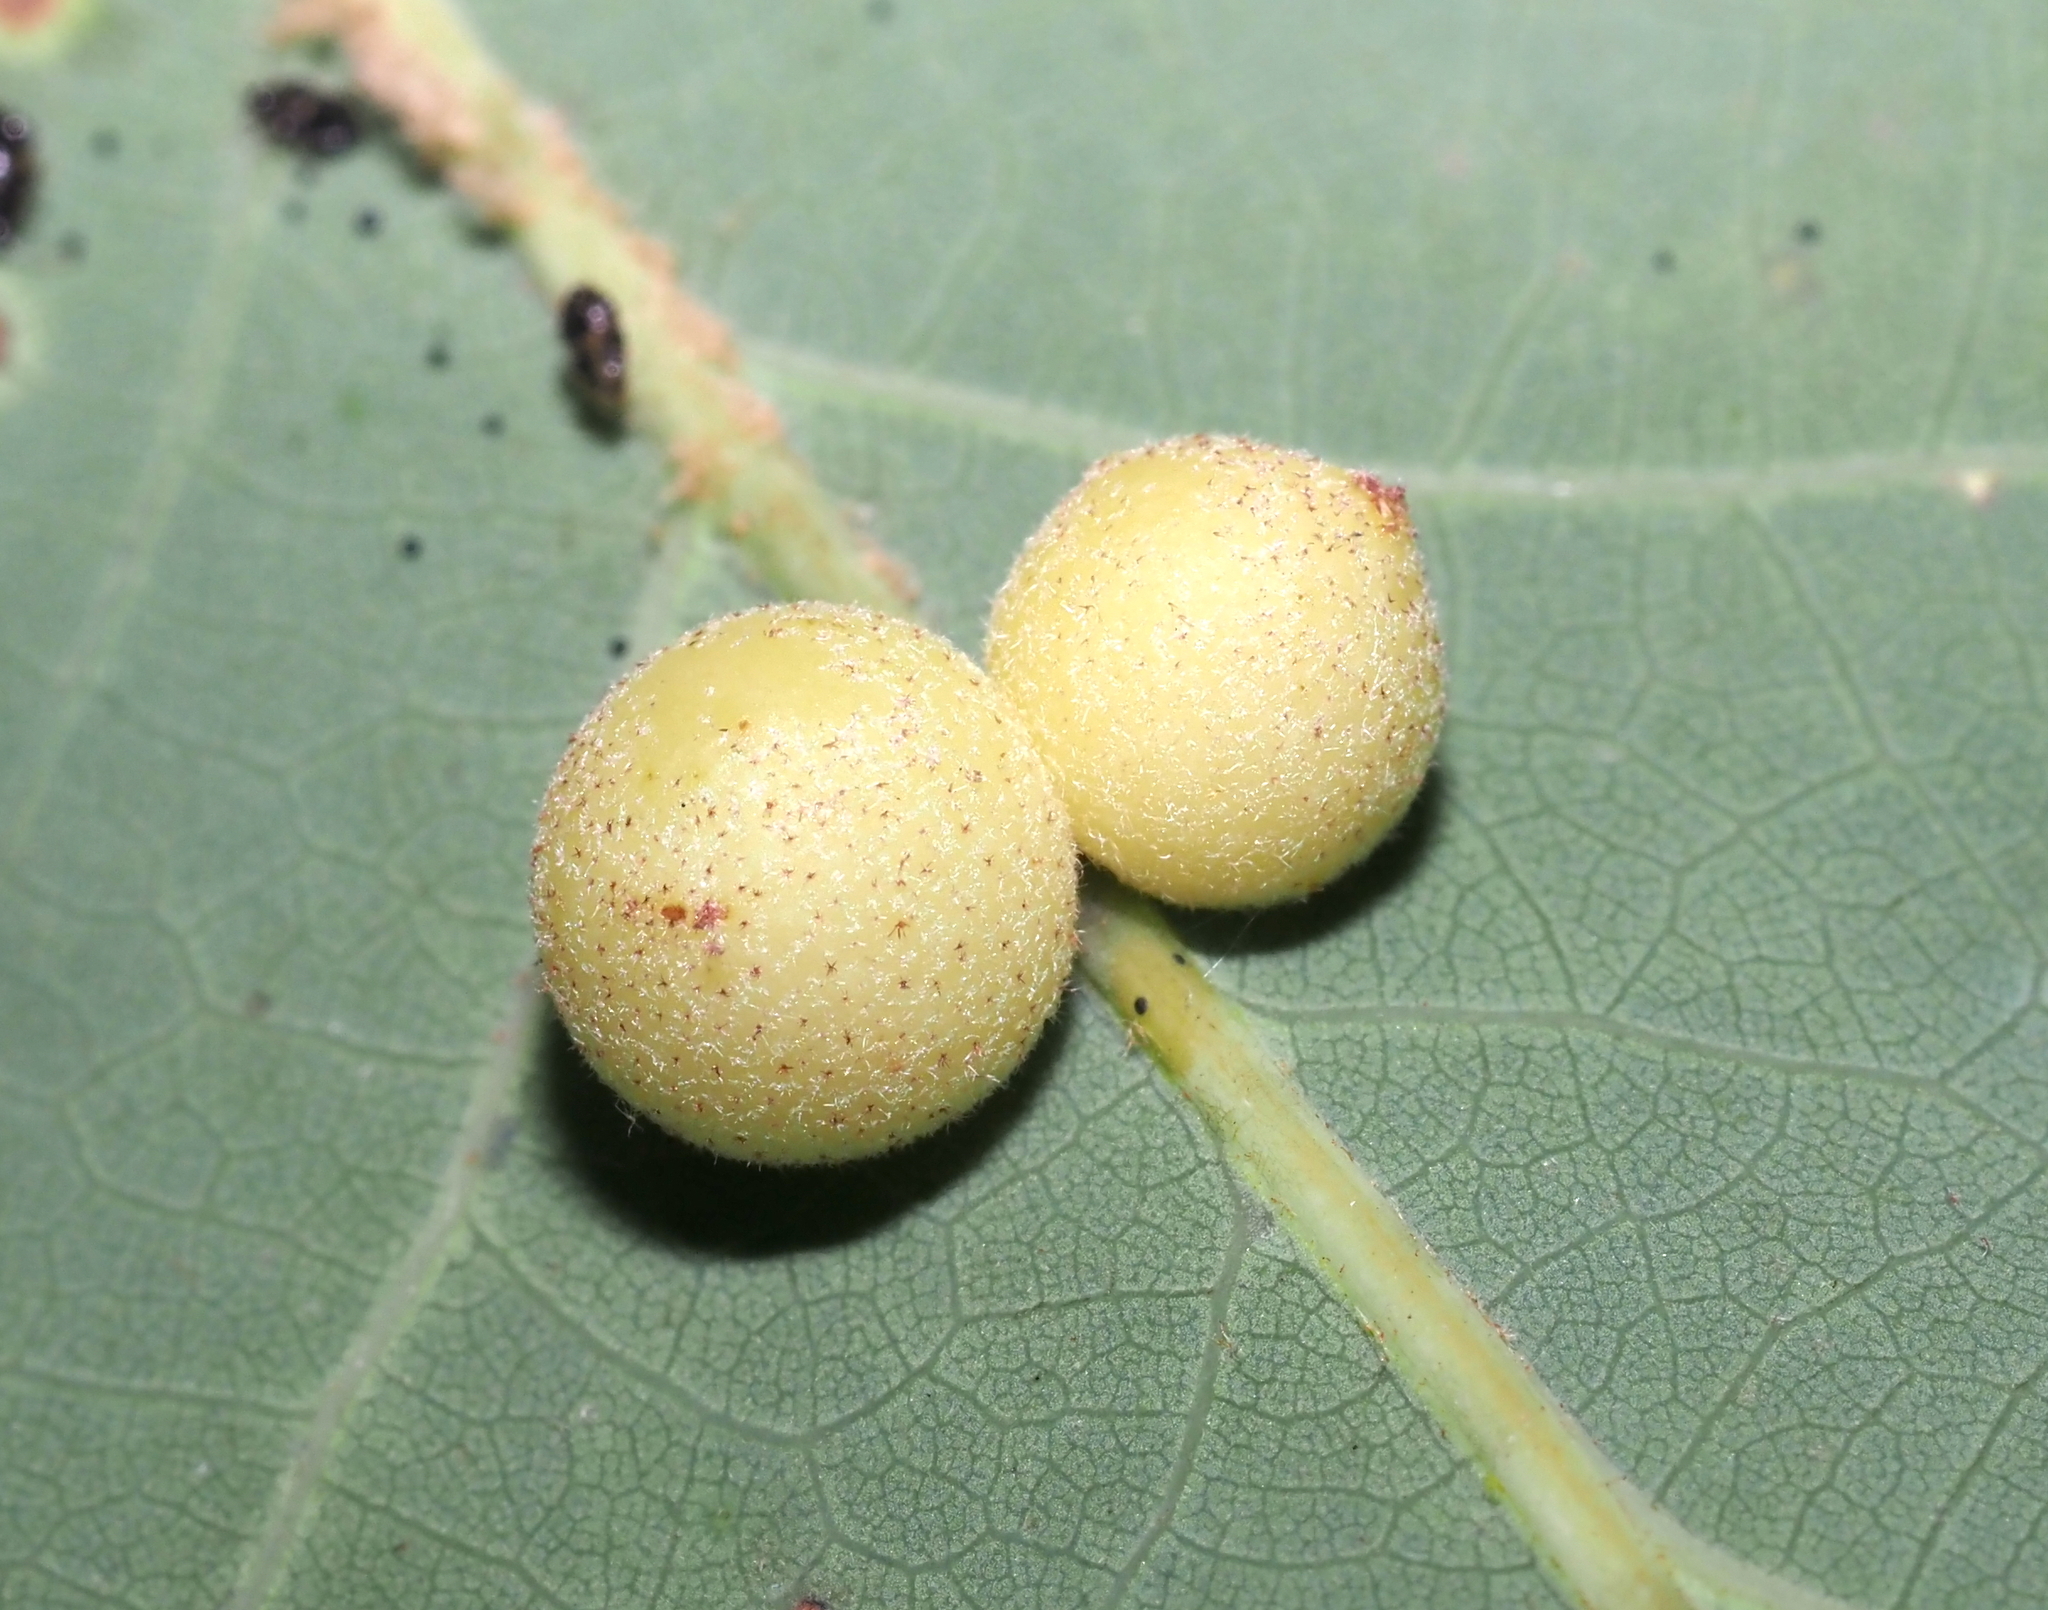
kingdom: Animalia
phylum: Arthropoda
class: Insecta
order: Hymenoptera
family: Cynipidae
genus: Philonix
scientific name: Philonix fulvicollis
